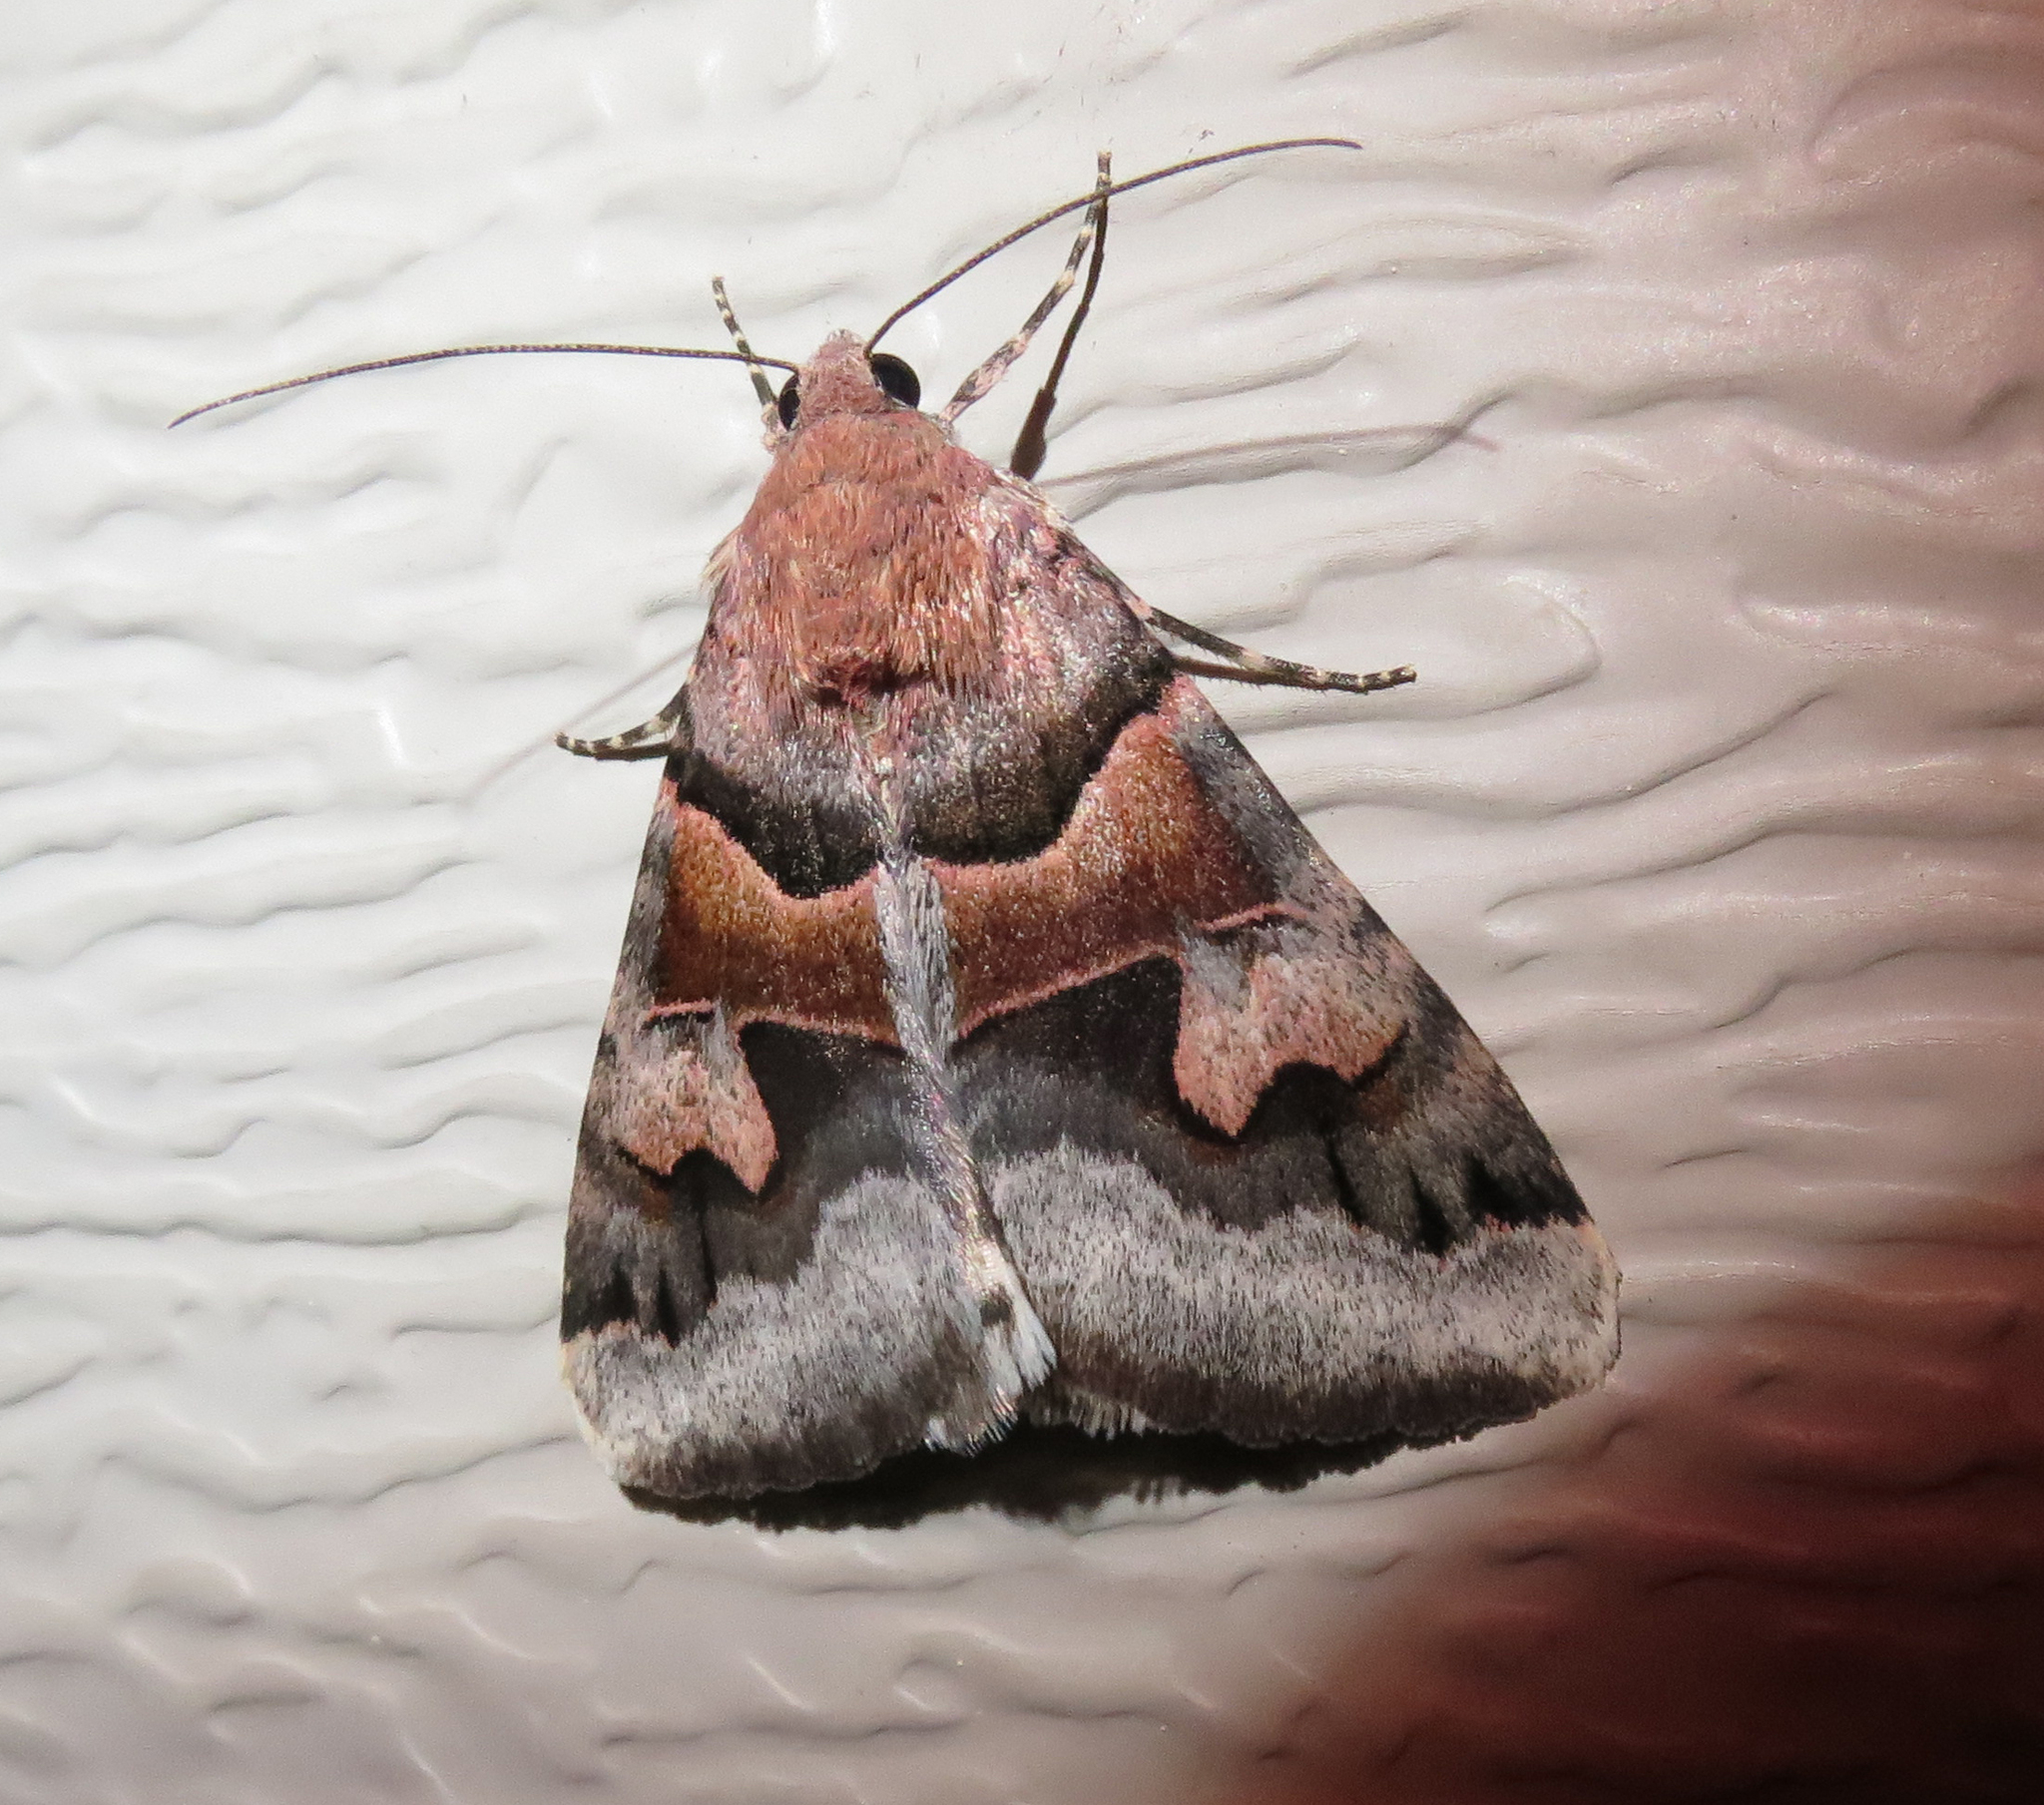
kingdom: Animalia
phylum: Arthropoda
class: Insecta
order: Lepidoptera
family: Erebidae
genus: Drasteria
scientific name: Drasteria pallescens
